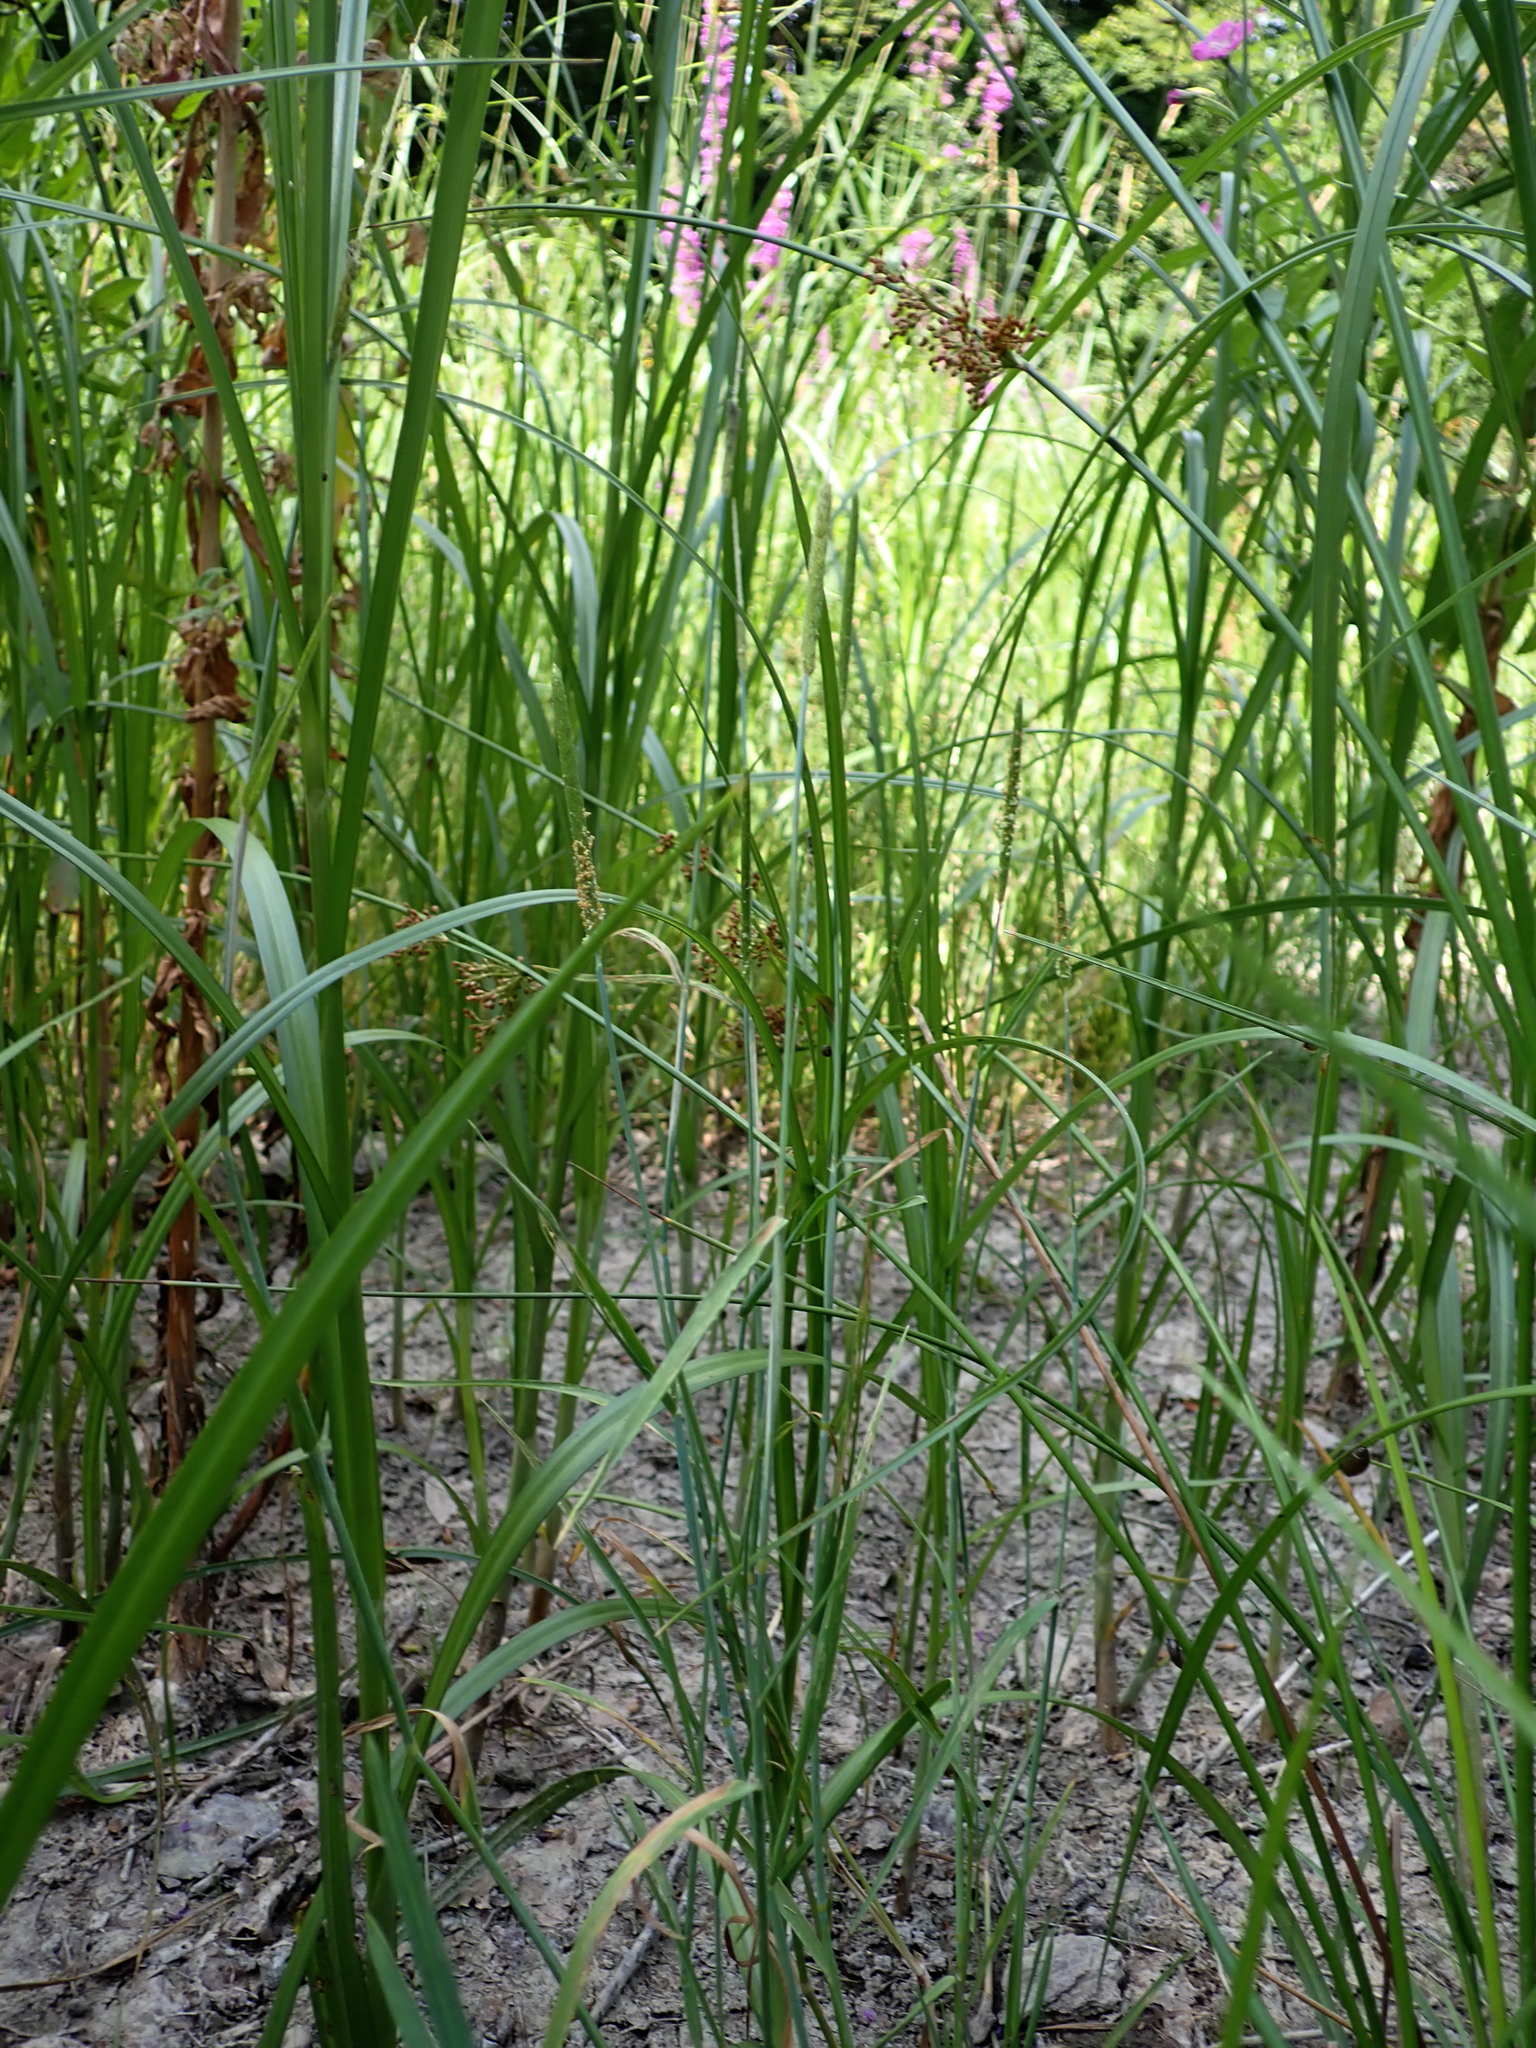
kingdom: Plantae
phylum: Tracheophyta
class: Liliopsida
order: Poales
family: Poaceae
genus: Alopecurus
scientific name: Alopecurus aequalis
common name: Orange foxtail
